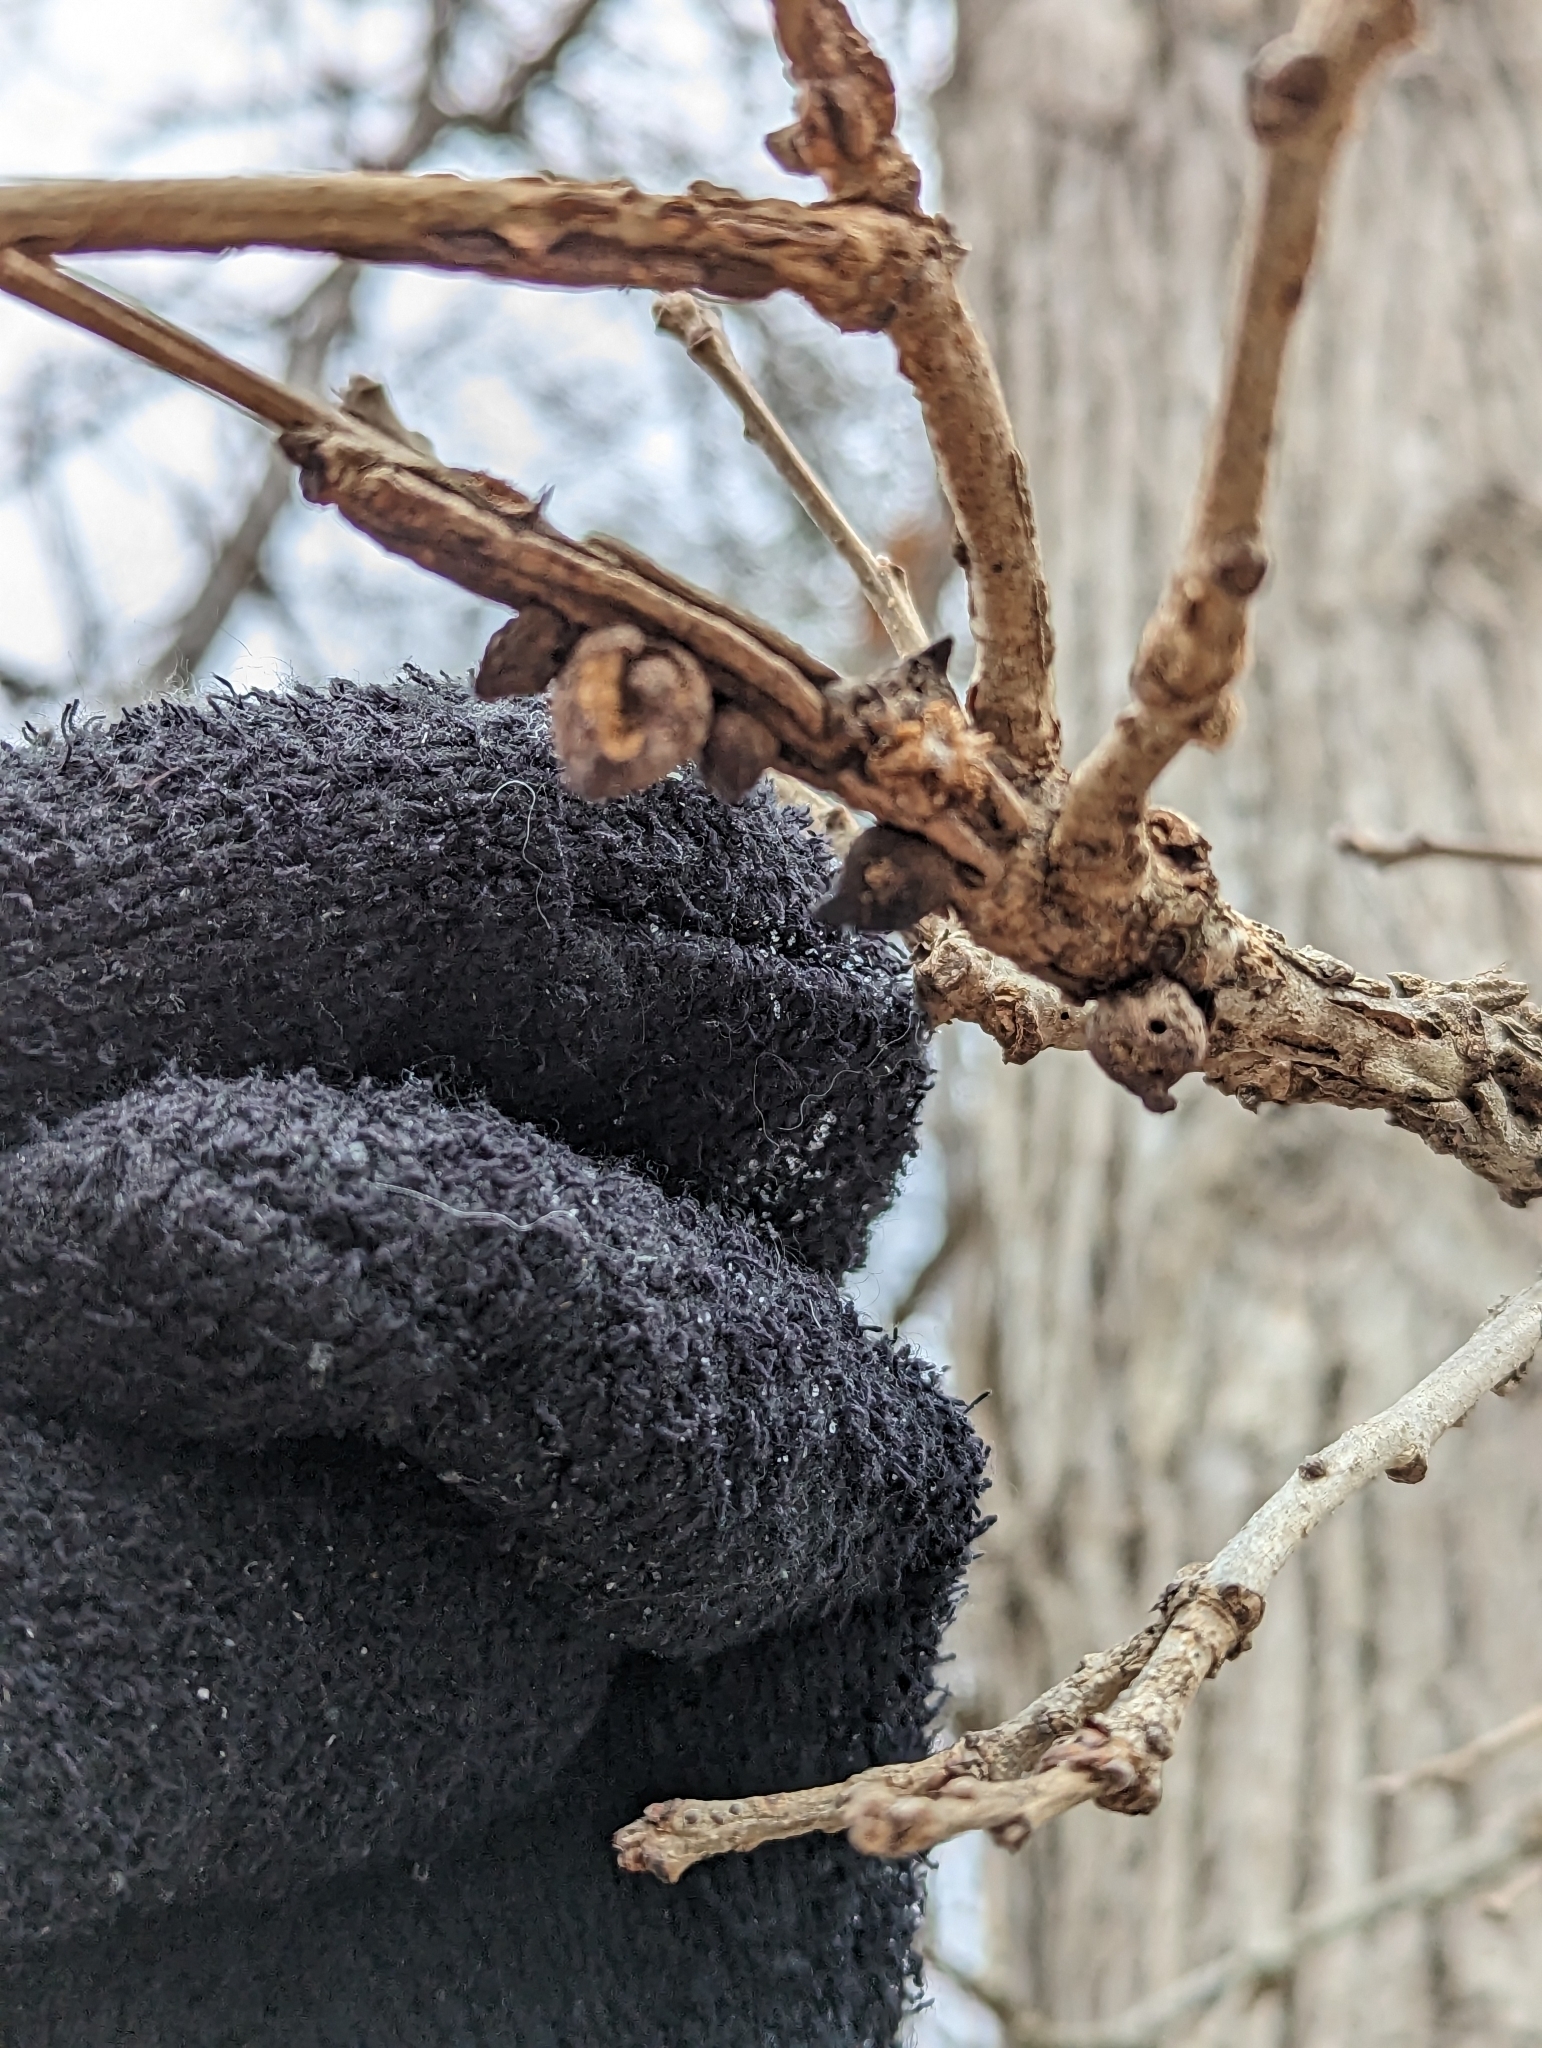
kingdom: Animalia
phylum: Arthropoda
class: Insecta
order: Hymenoptera
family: Cynipidae
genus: Disholcaspis
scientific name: Disholcaspis
